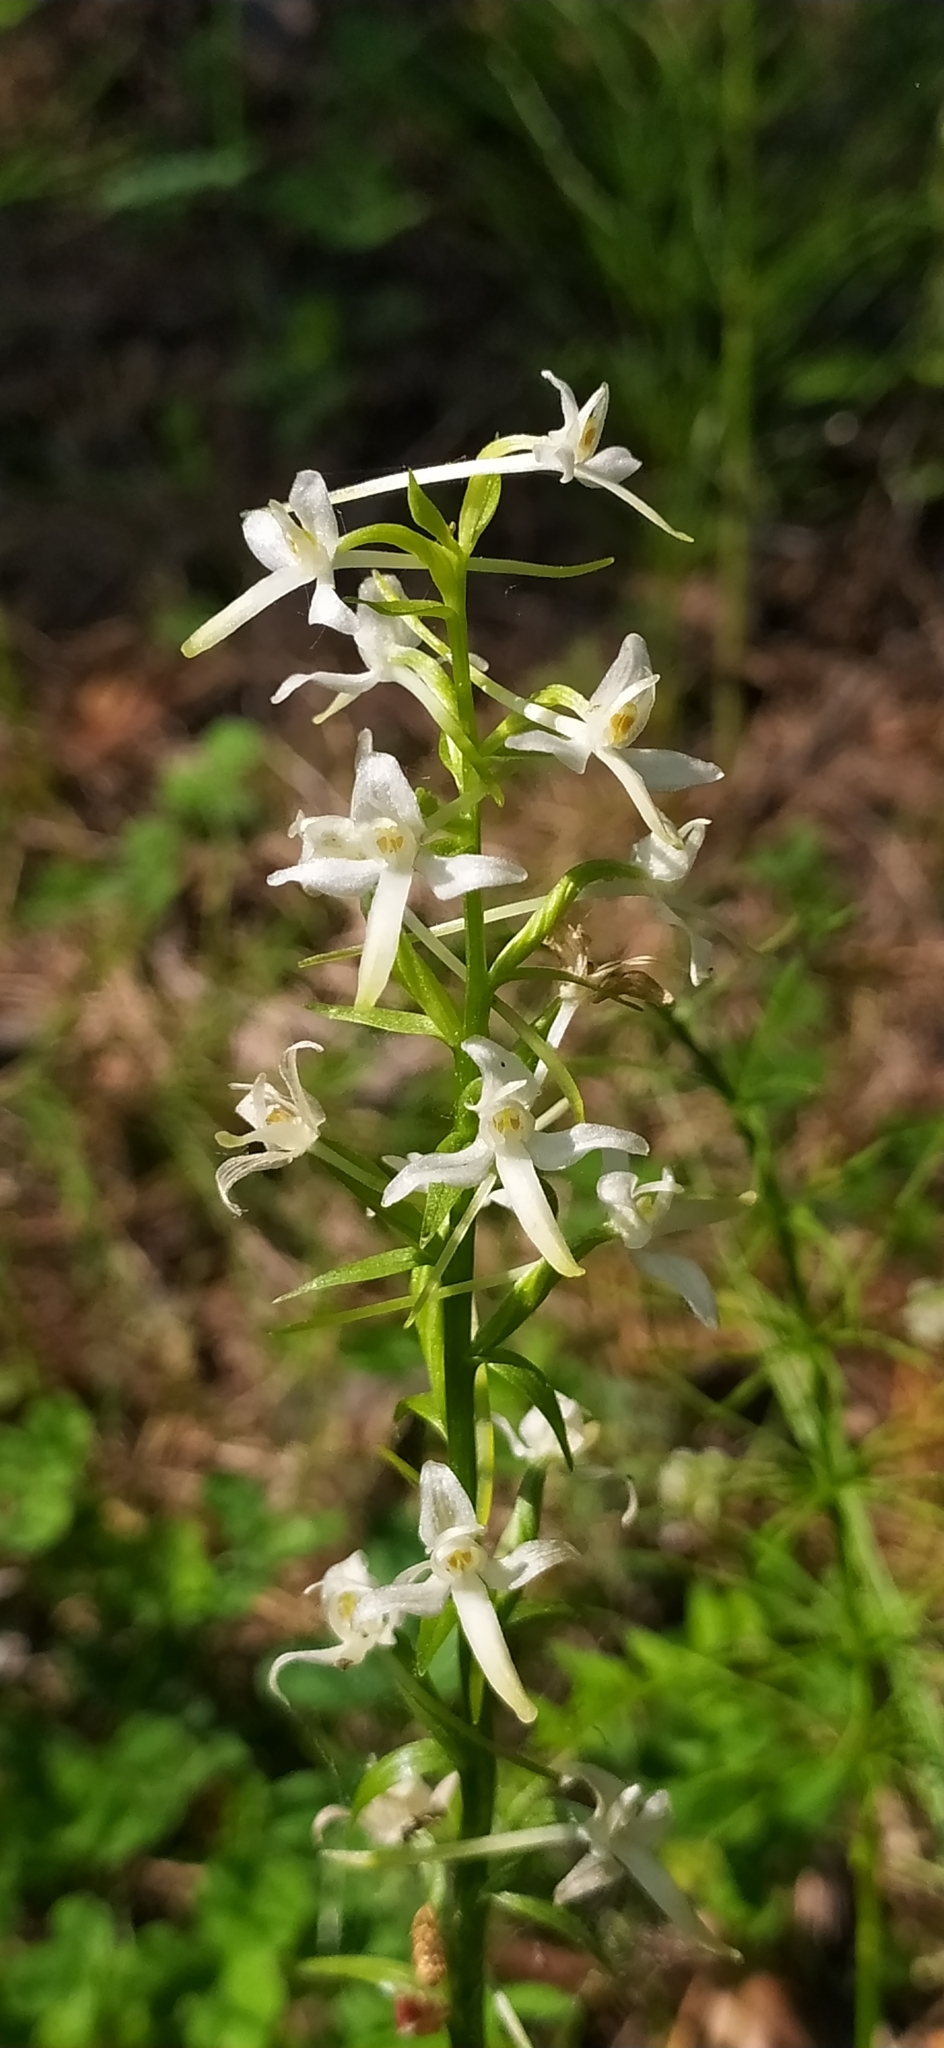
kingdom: Plantae
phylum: Tracheophyta
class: Liliopsida
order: Asparagales
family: Orchidaceae
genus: Platanthera
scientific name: Platanthera bifolia
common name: Lesser butterfly-orchid
